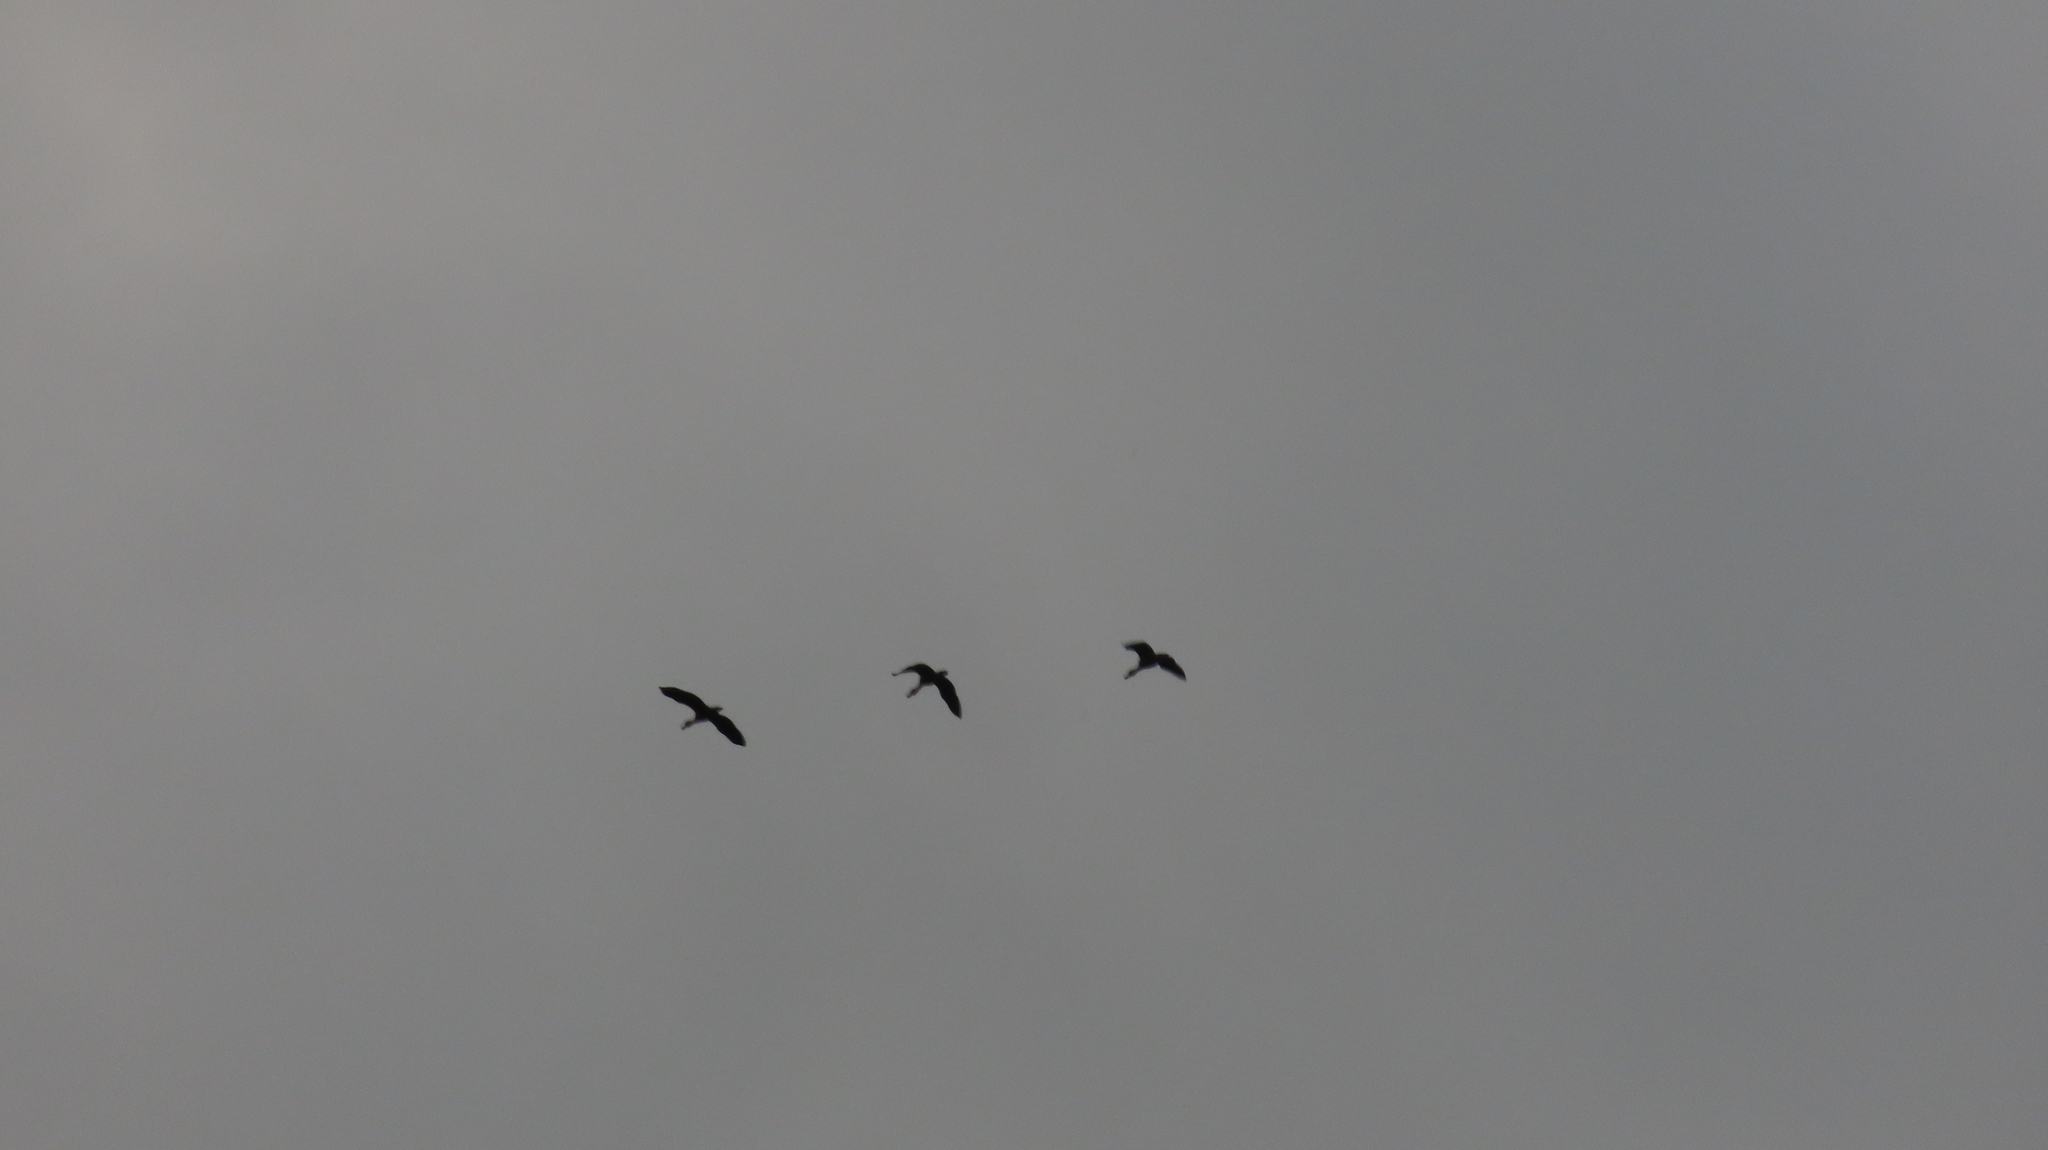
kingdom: Animalia
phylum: Chordata
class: Aves
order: Anseriformes
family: Anatidae
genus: Dendrocygna
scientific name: Dendrocygna javanica
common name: Lesser whistling-duck
